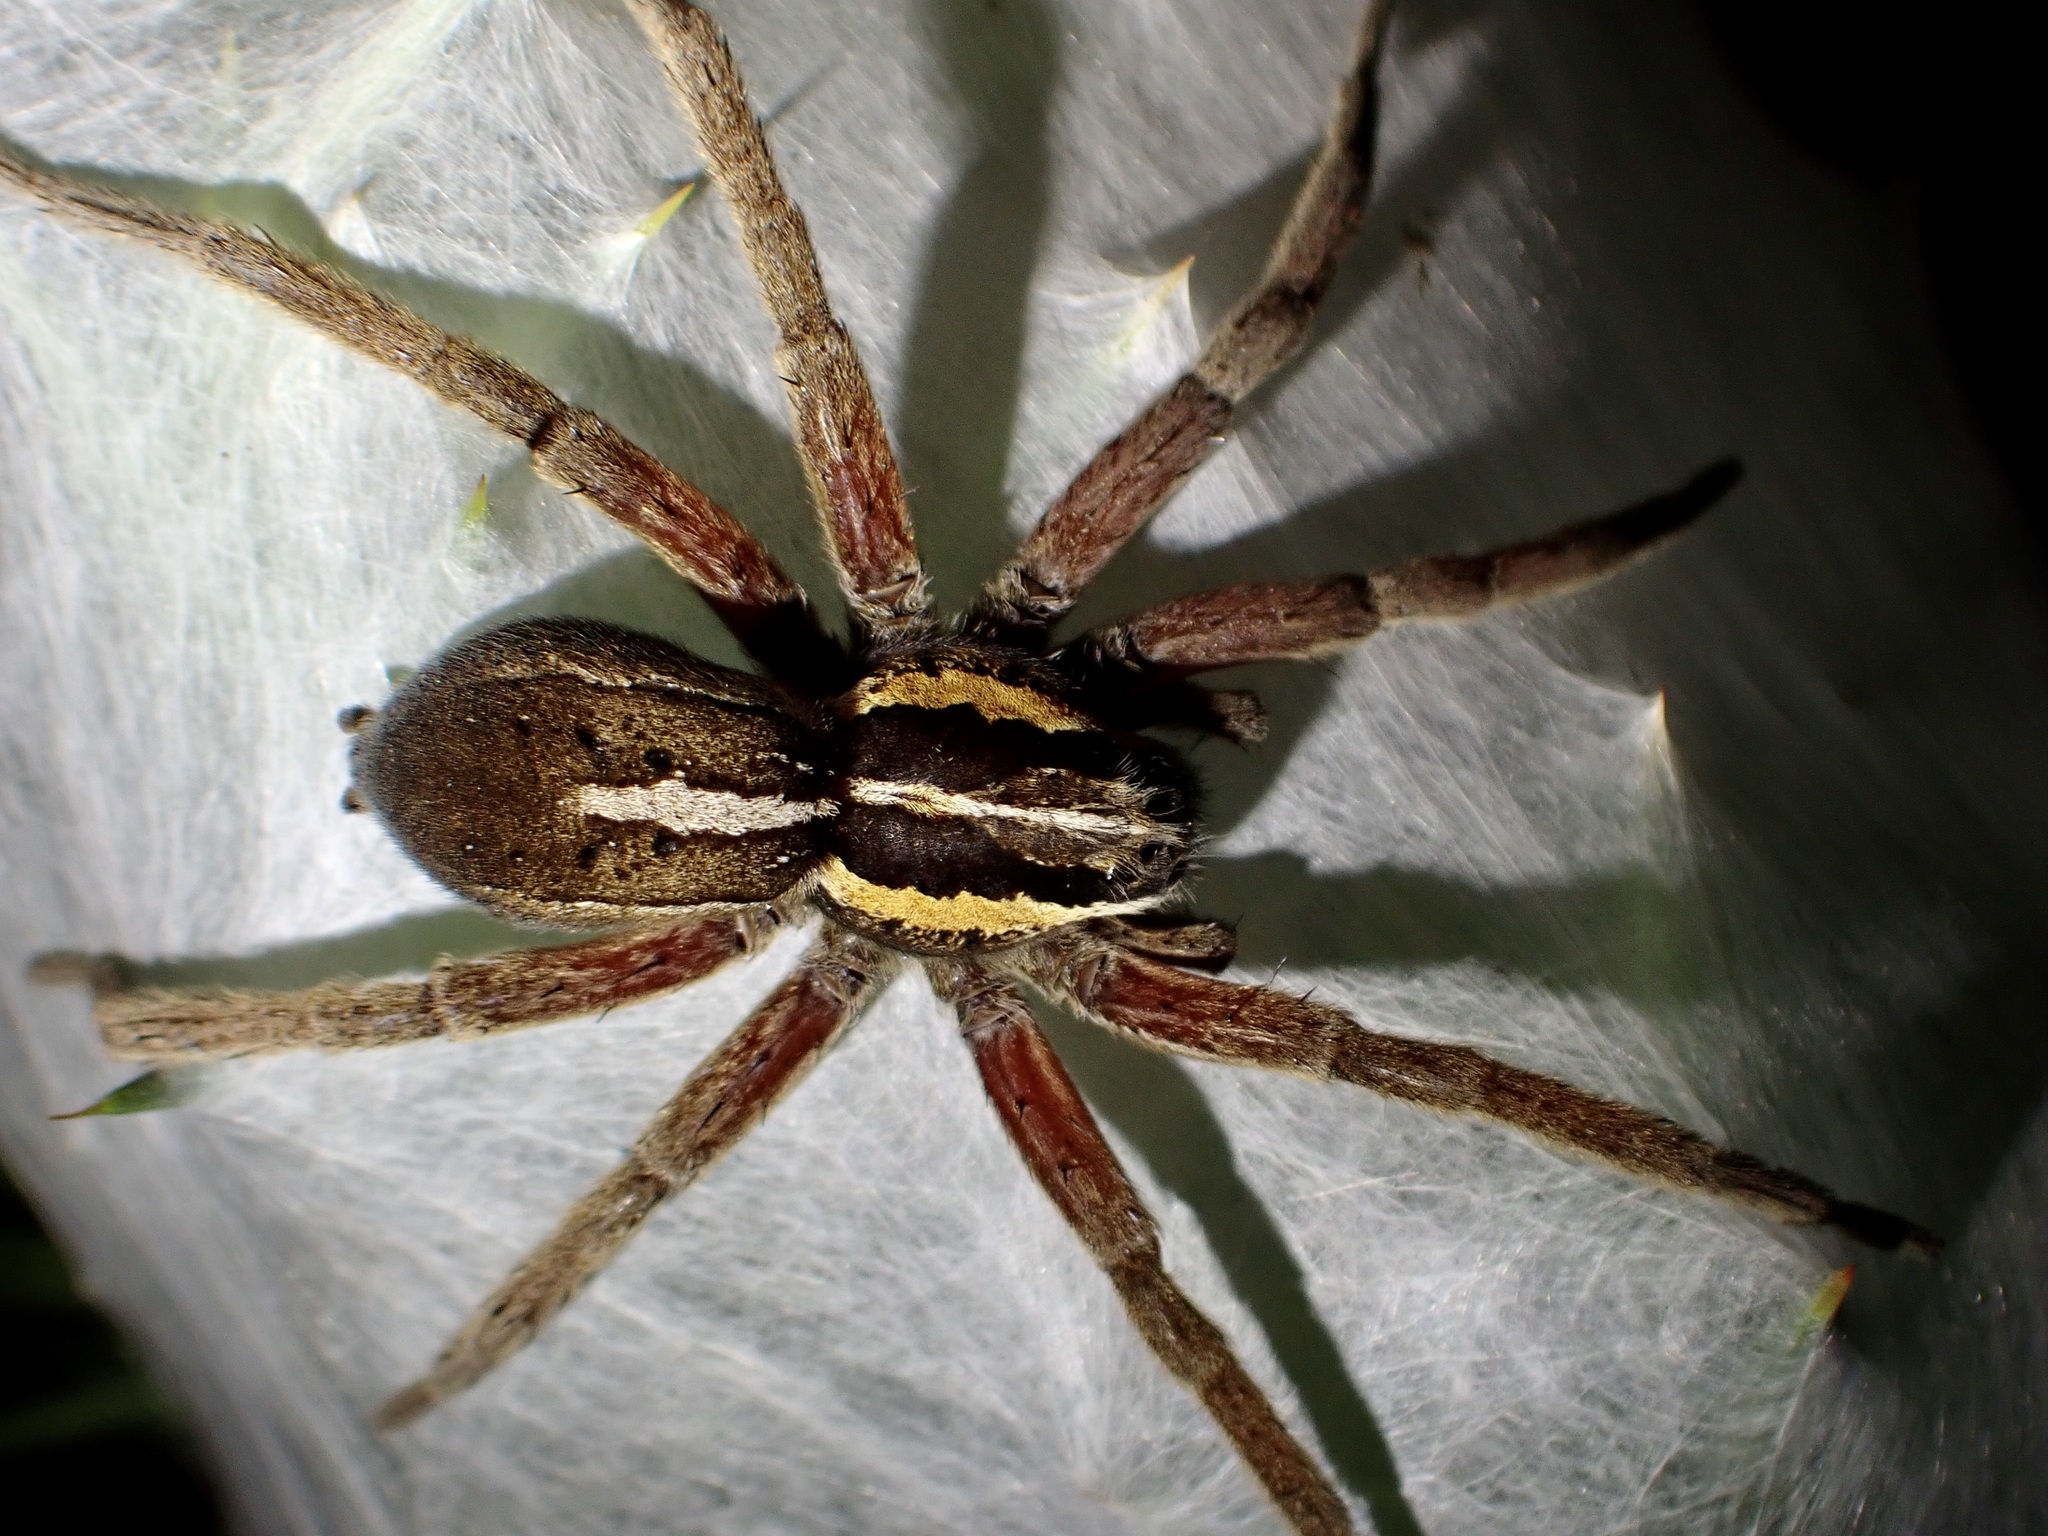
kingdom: Animalia
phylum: Arthropoda
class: Arachnida
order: Araneae
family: Pisauridae
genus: Dolomedes
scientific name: Dolomedes minor
